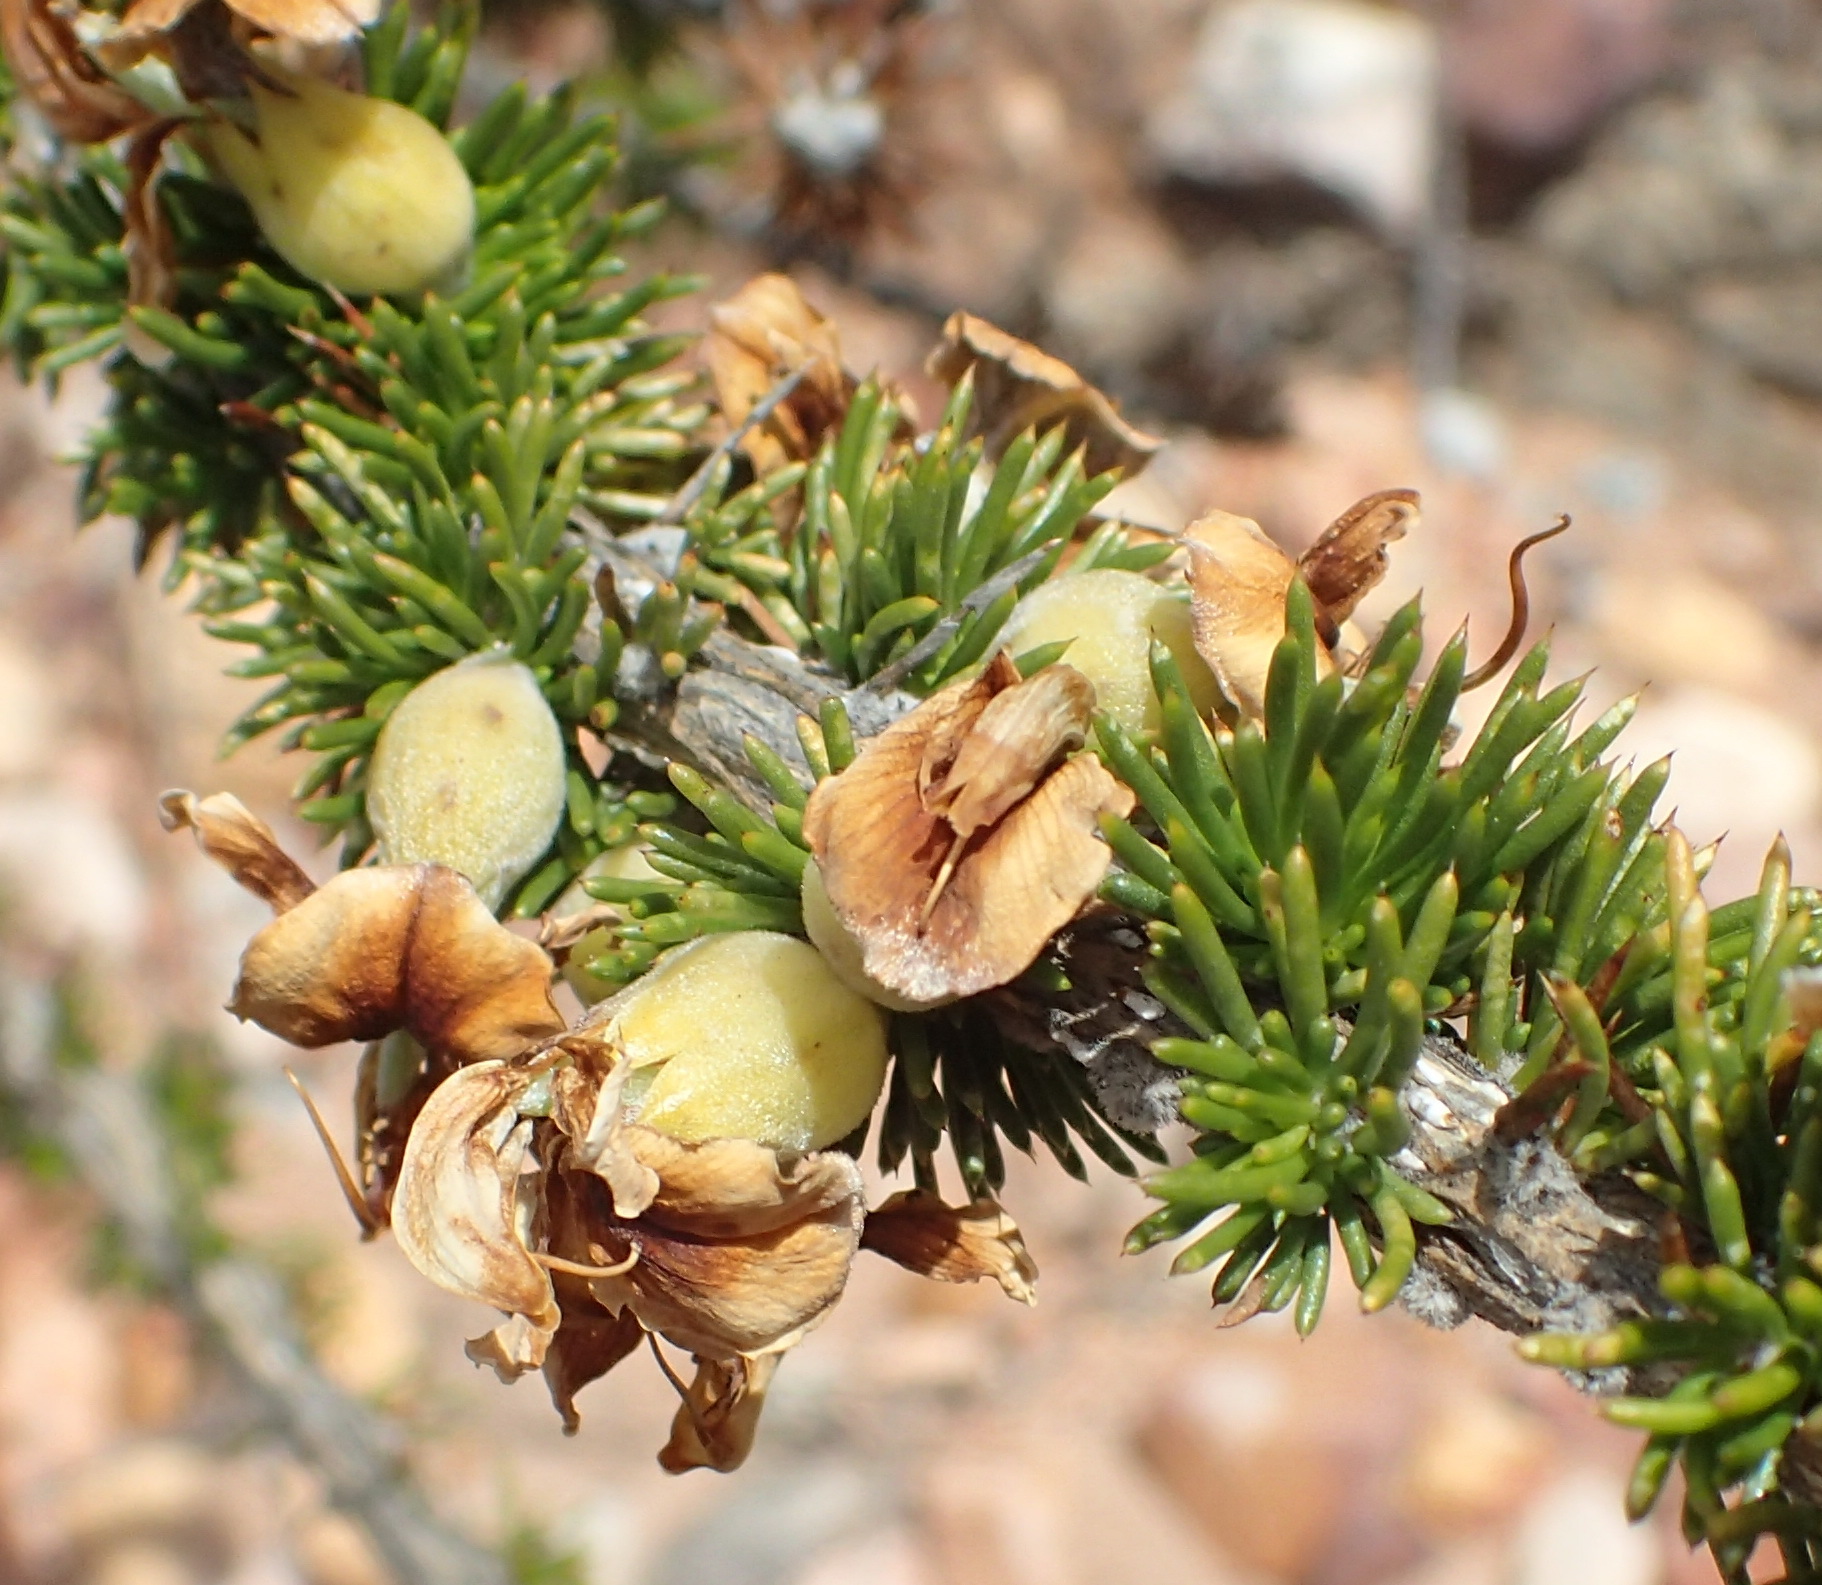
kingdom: Plantae
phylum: Tracheophyta
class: Magnoliopsida
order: Fabales
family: Fabaceae
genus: Aspalathus
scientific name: Aspalathus sceptrumaureum
